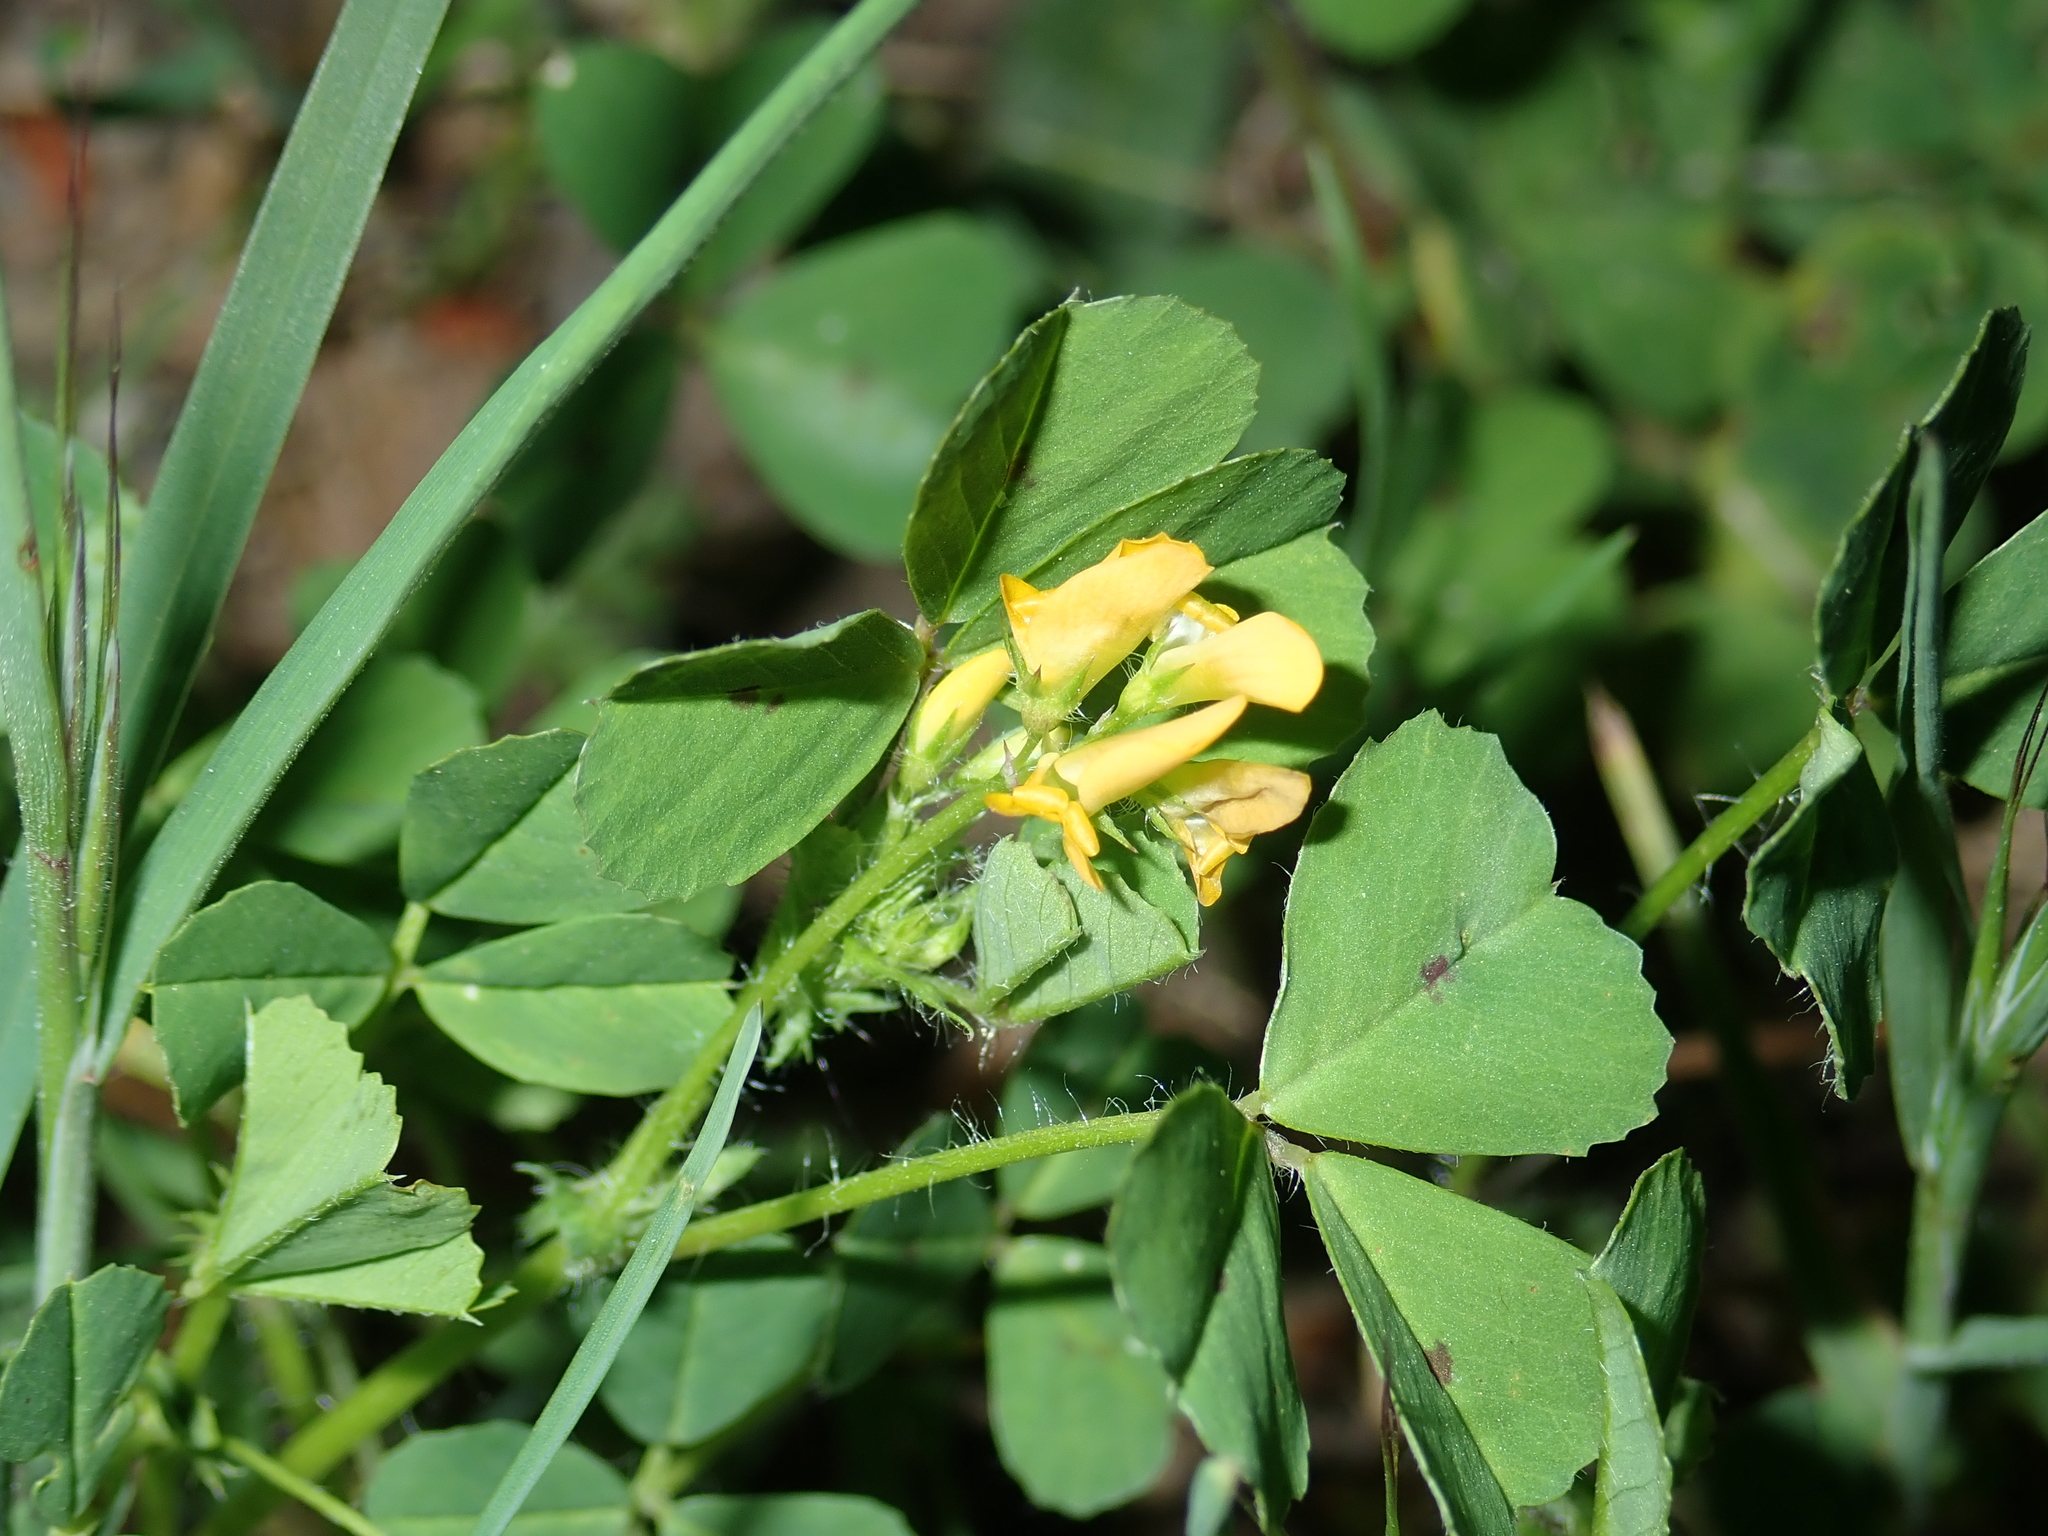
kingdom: Plantae
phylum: Tracheophyta
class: Magnoliopsida
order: Fabales
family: Fabaceae
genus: Medicago
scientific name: Medicago arabica
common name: Spotted medick
